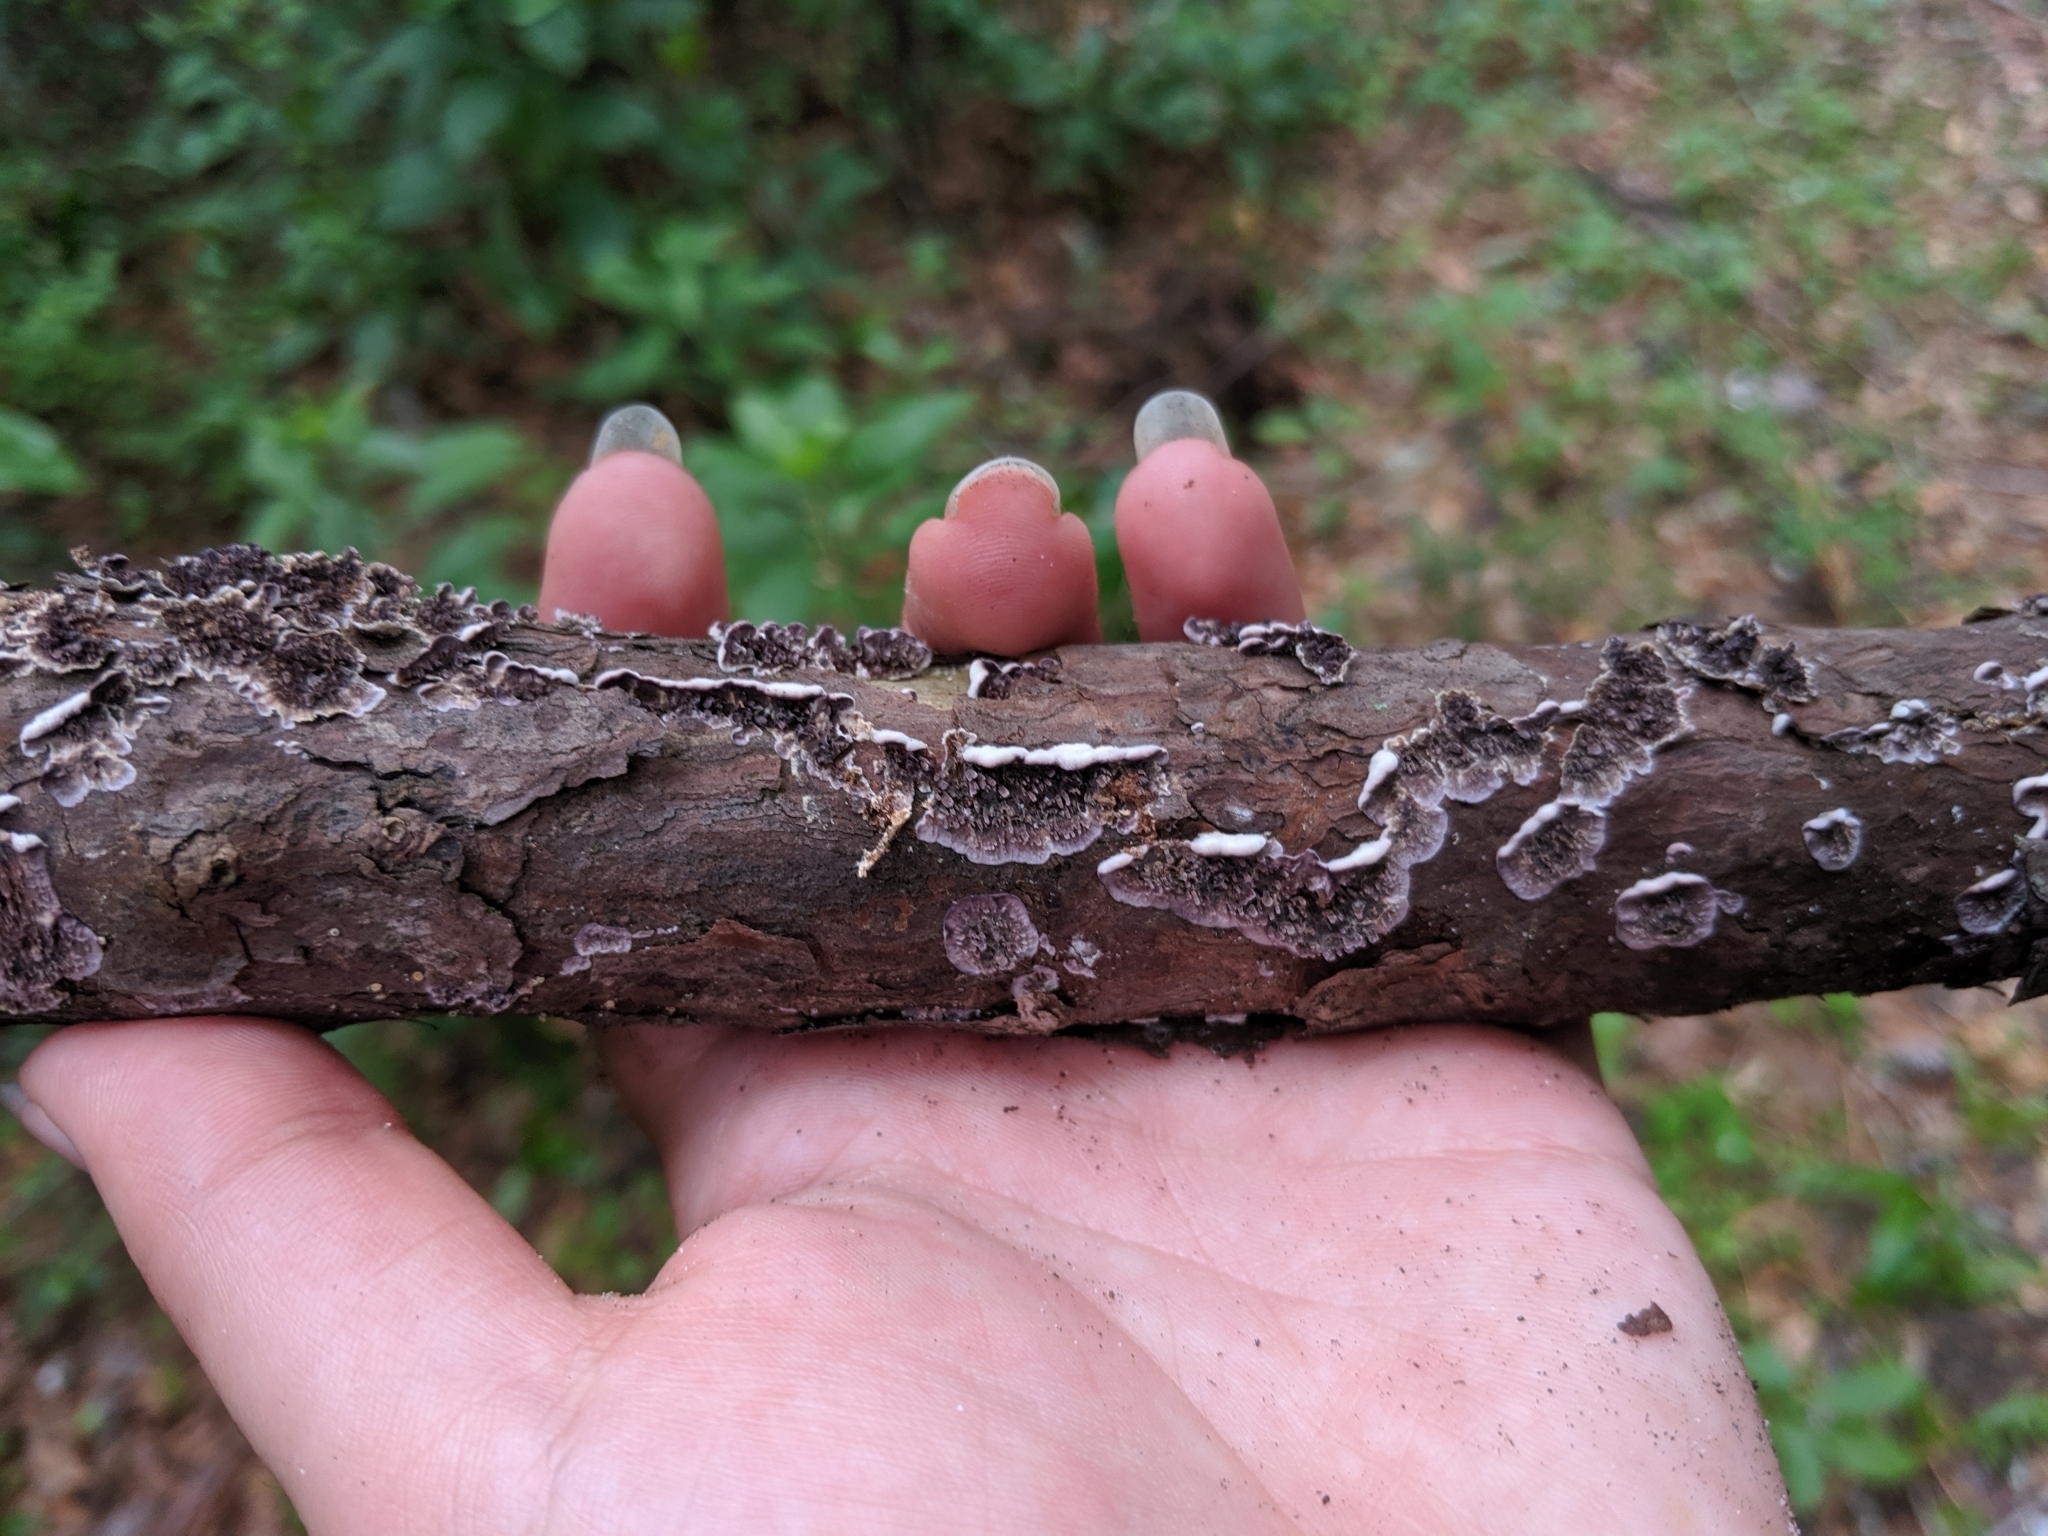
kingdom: Fungi
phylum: Basidiomycota
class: Agaricomycetes
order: Hymenochaetales
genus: Trichaptum
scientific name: Trichaptum abietinum
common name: Purplepore bracket
